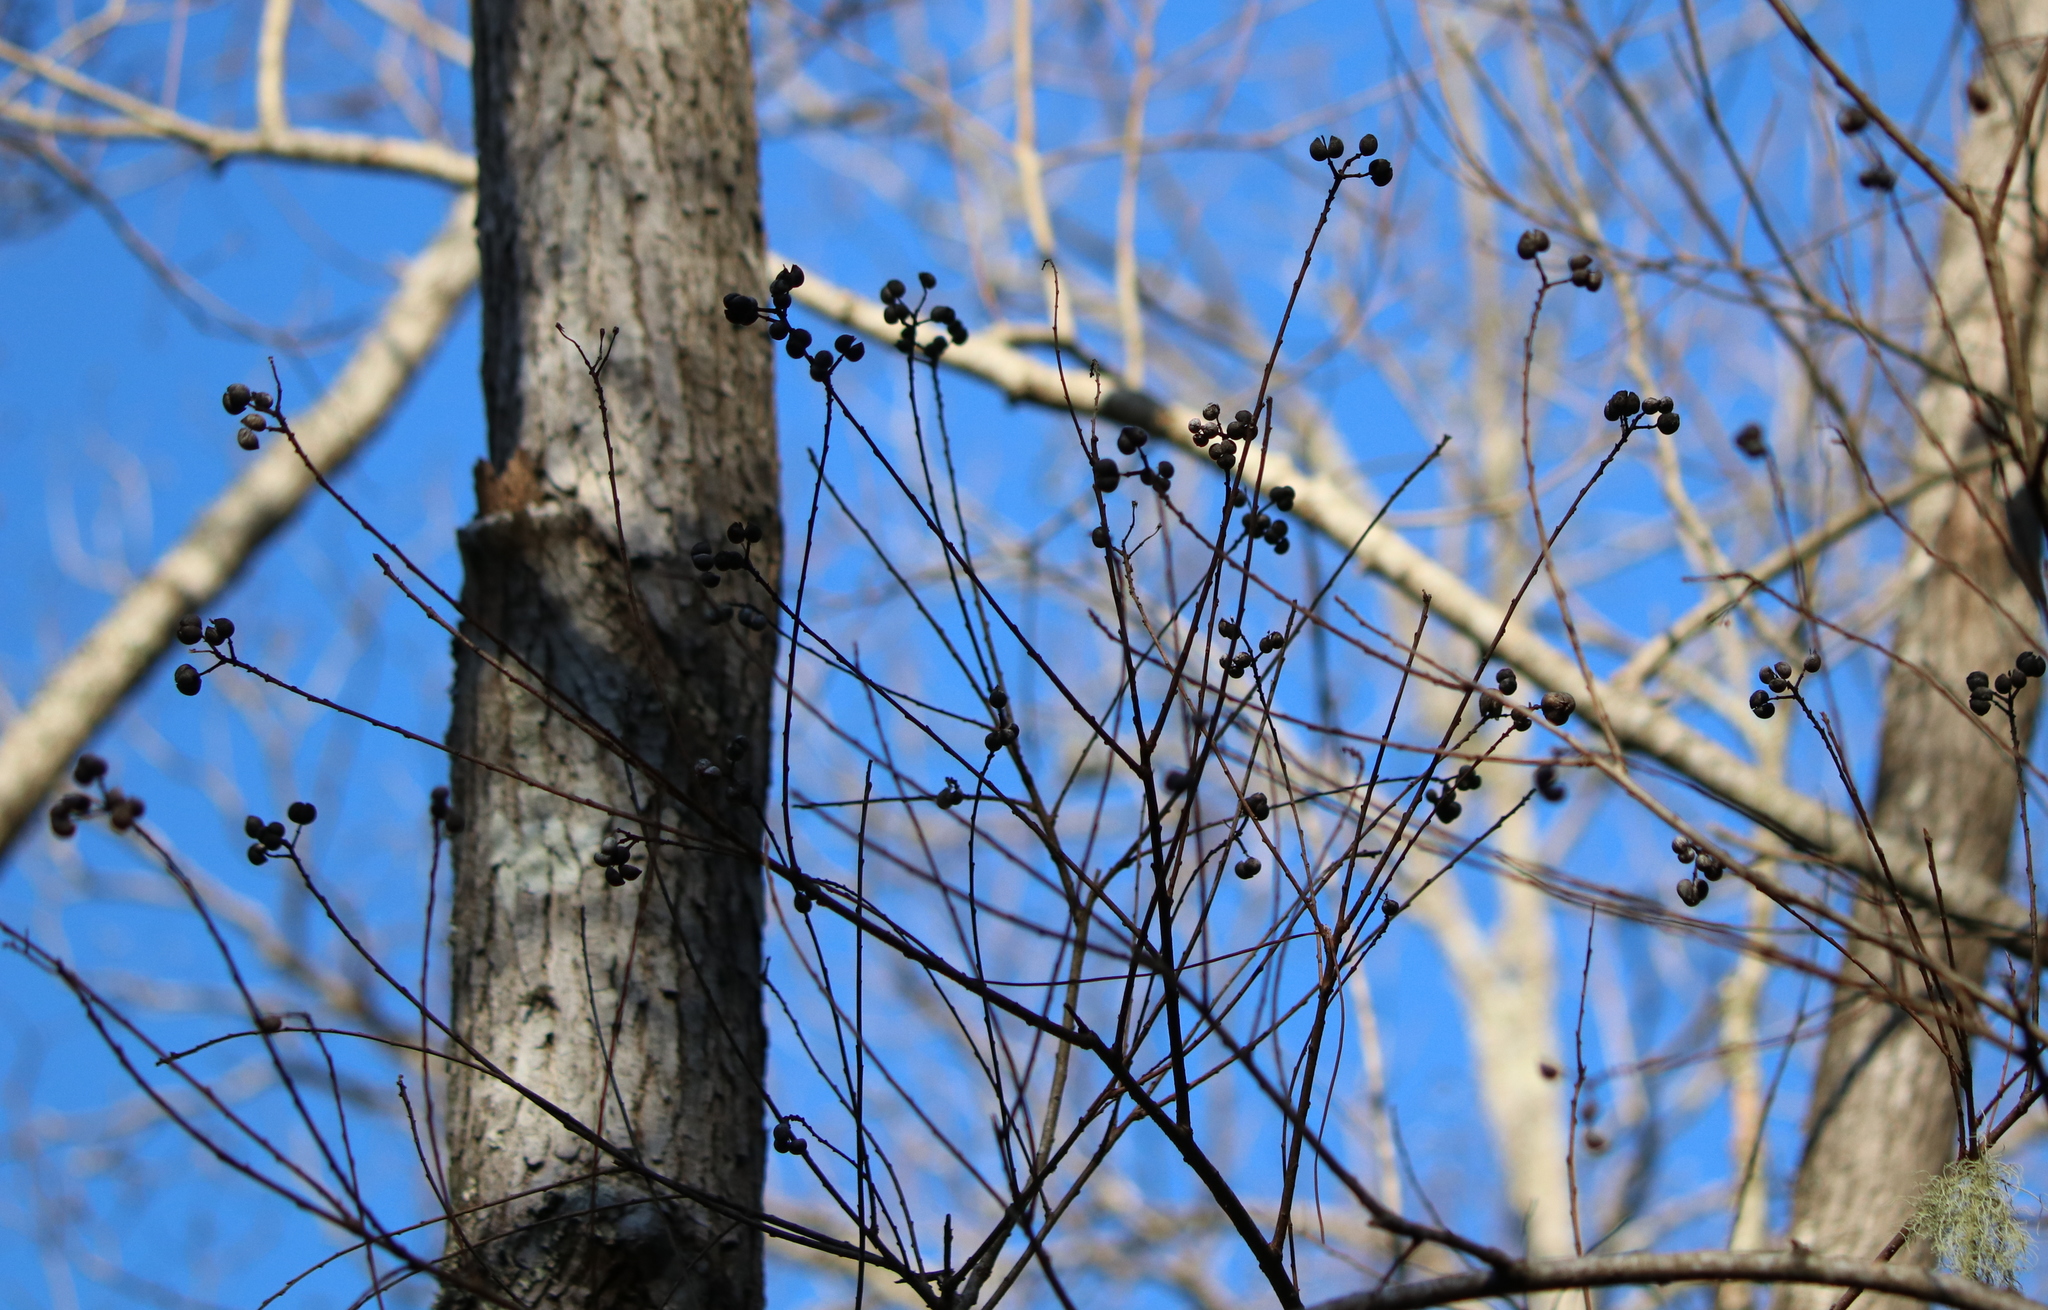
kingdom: Plantae
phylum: Tracheophyta
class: Magnoliopsida
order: Malpighiales
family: Euphorbiaceae
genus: Triadica
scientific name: Triadica sebifera
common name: Chinese tallow
